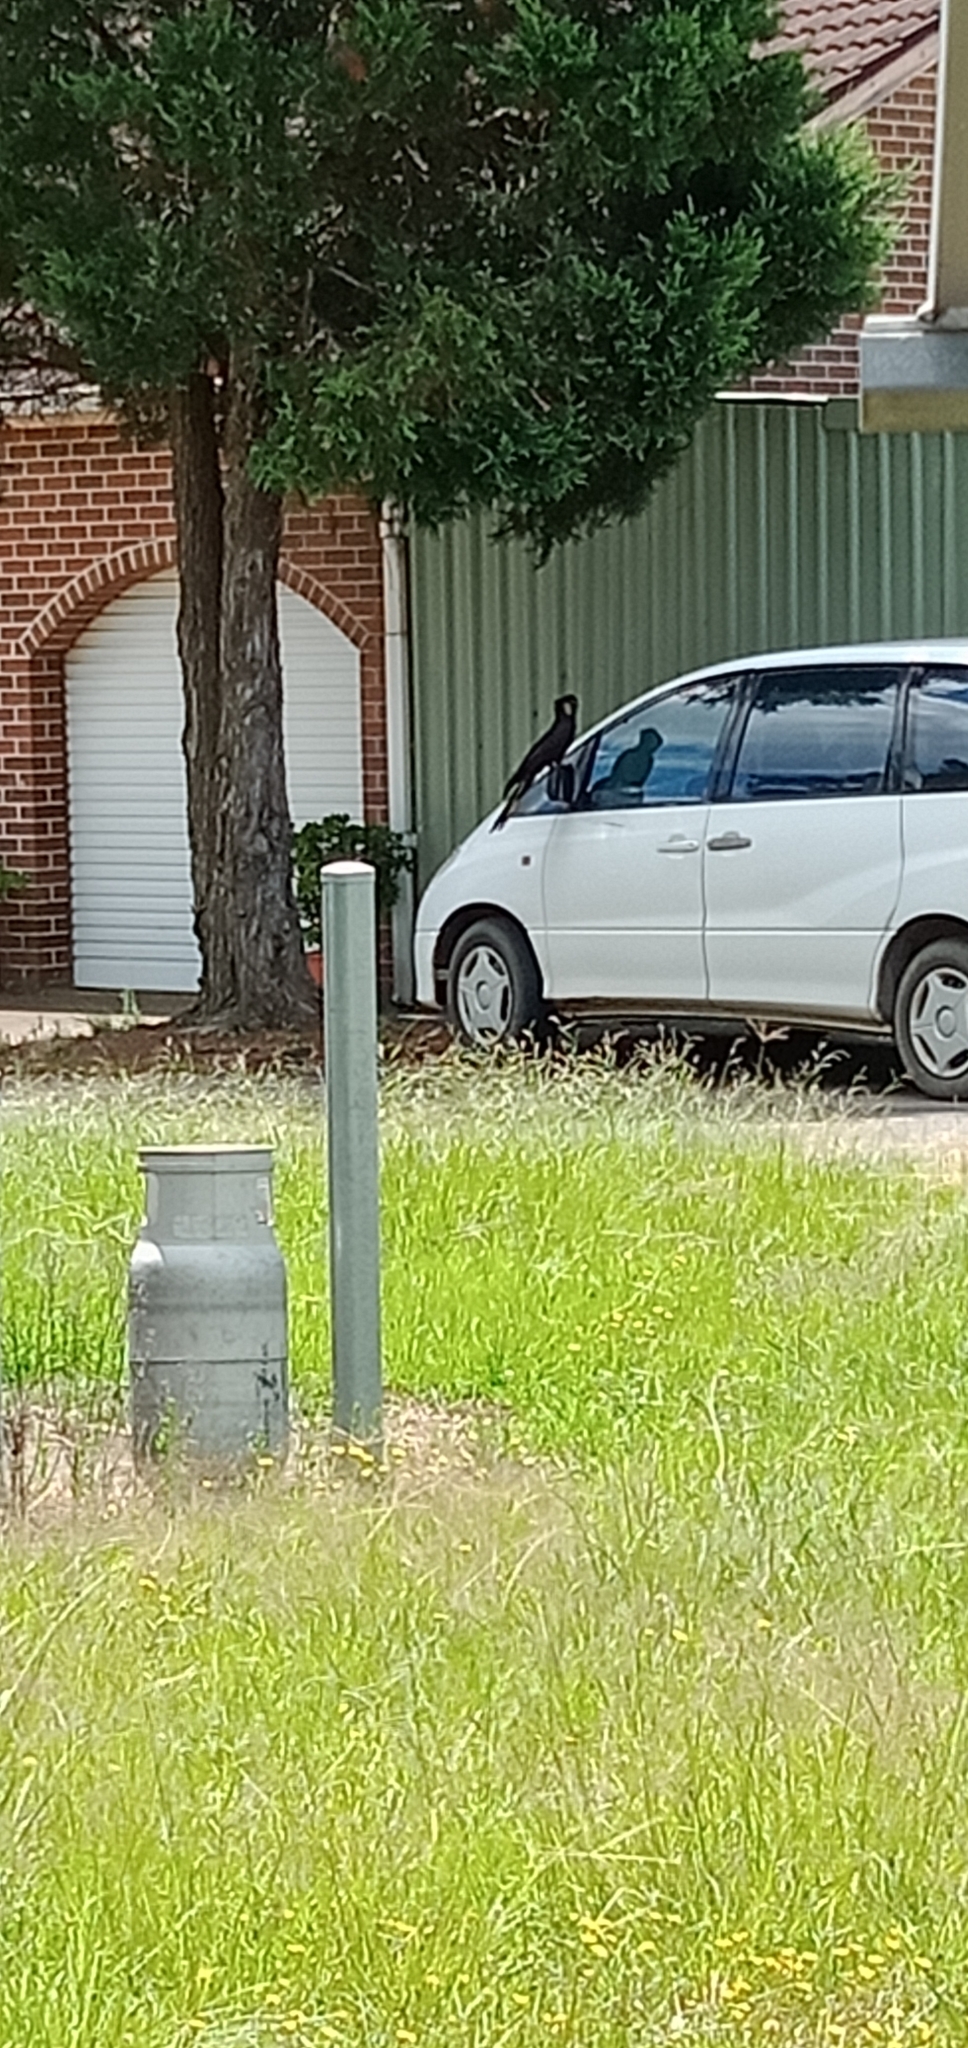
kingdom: Animalia
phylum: Chordata
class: Aves
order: Psittaciformes
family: Cacatuidae
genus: Zanda
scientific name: Zanda funerea
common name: Yellow-tailed black-cockatoo
